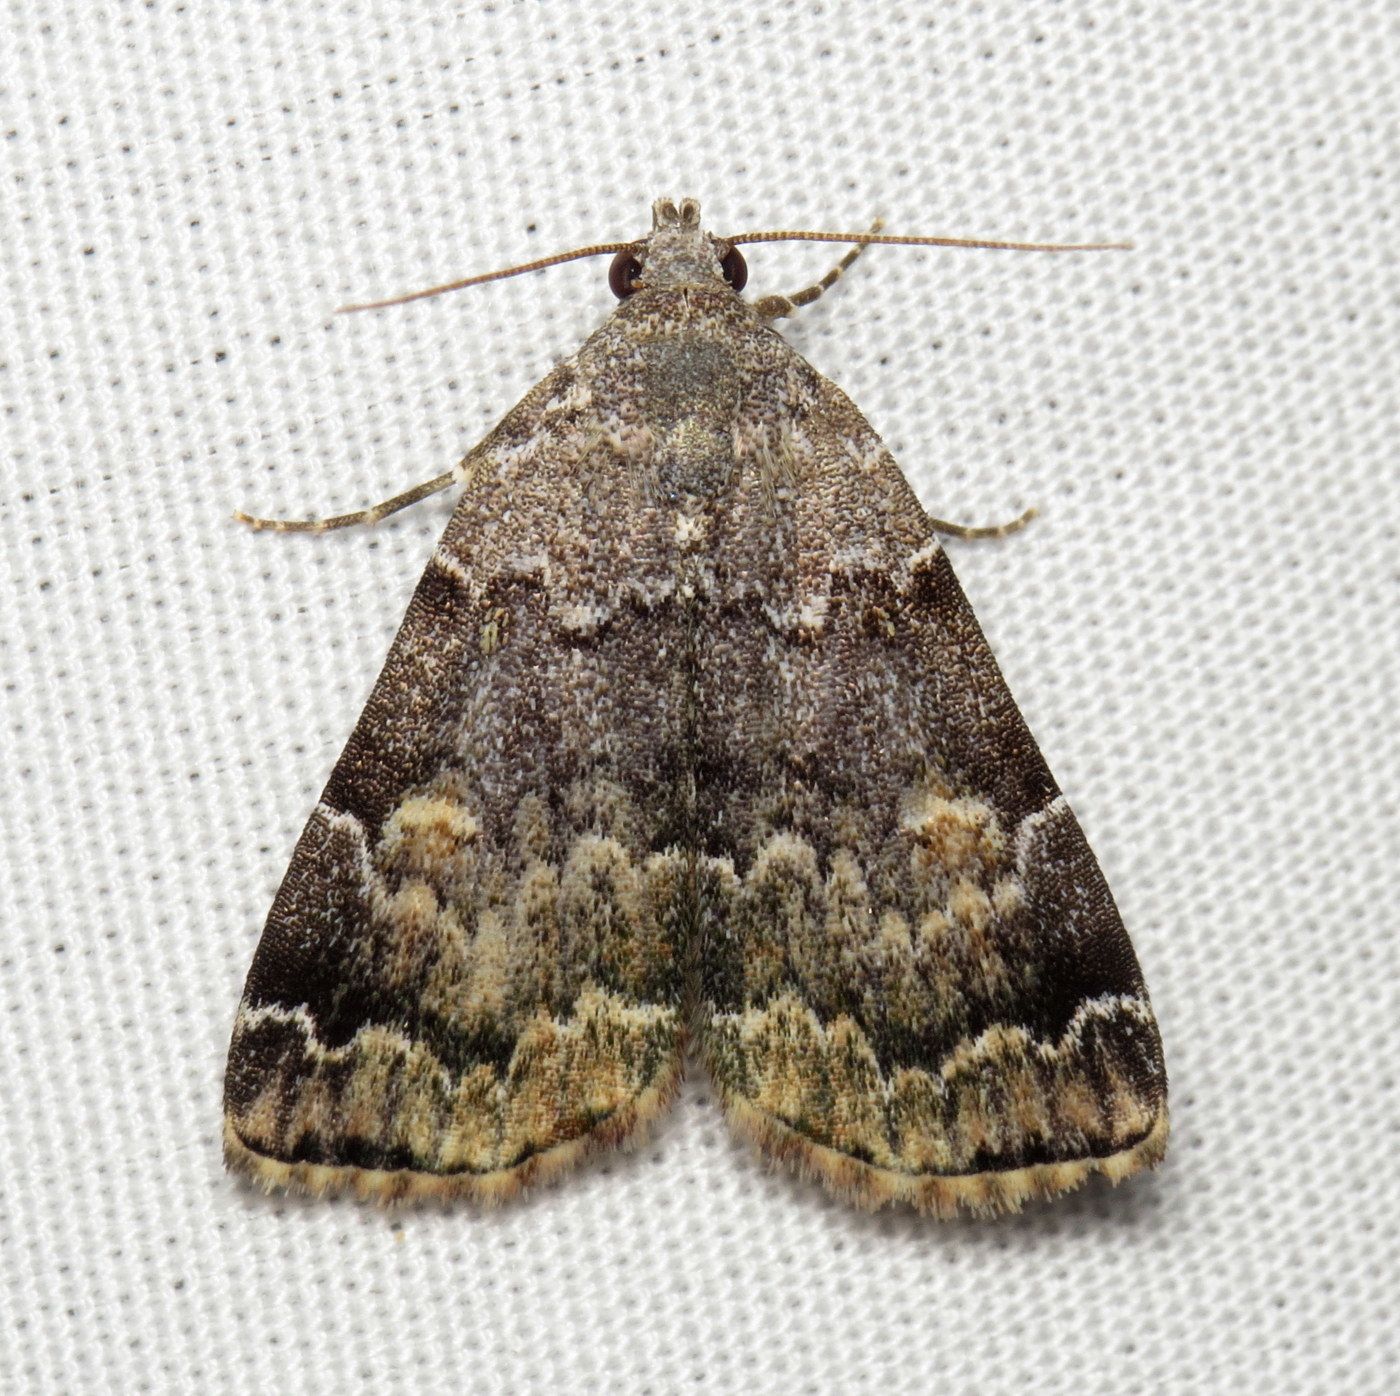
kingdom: Animalia
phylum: Arthropoda
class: Insecta
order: Lepidoptera
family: Erebidae
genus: Idia
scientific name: Idia americalis
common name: American idia moth
